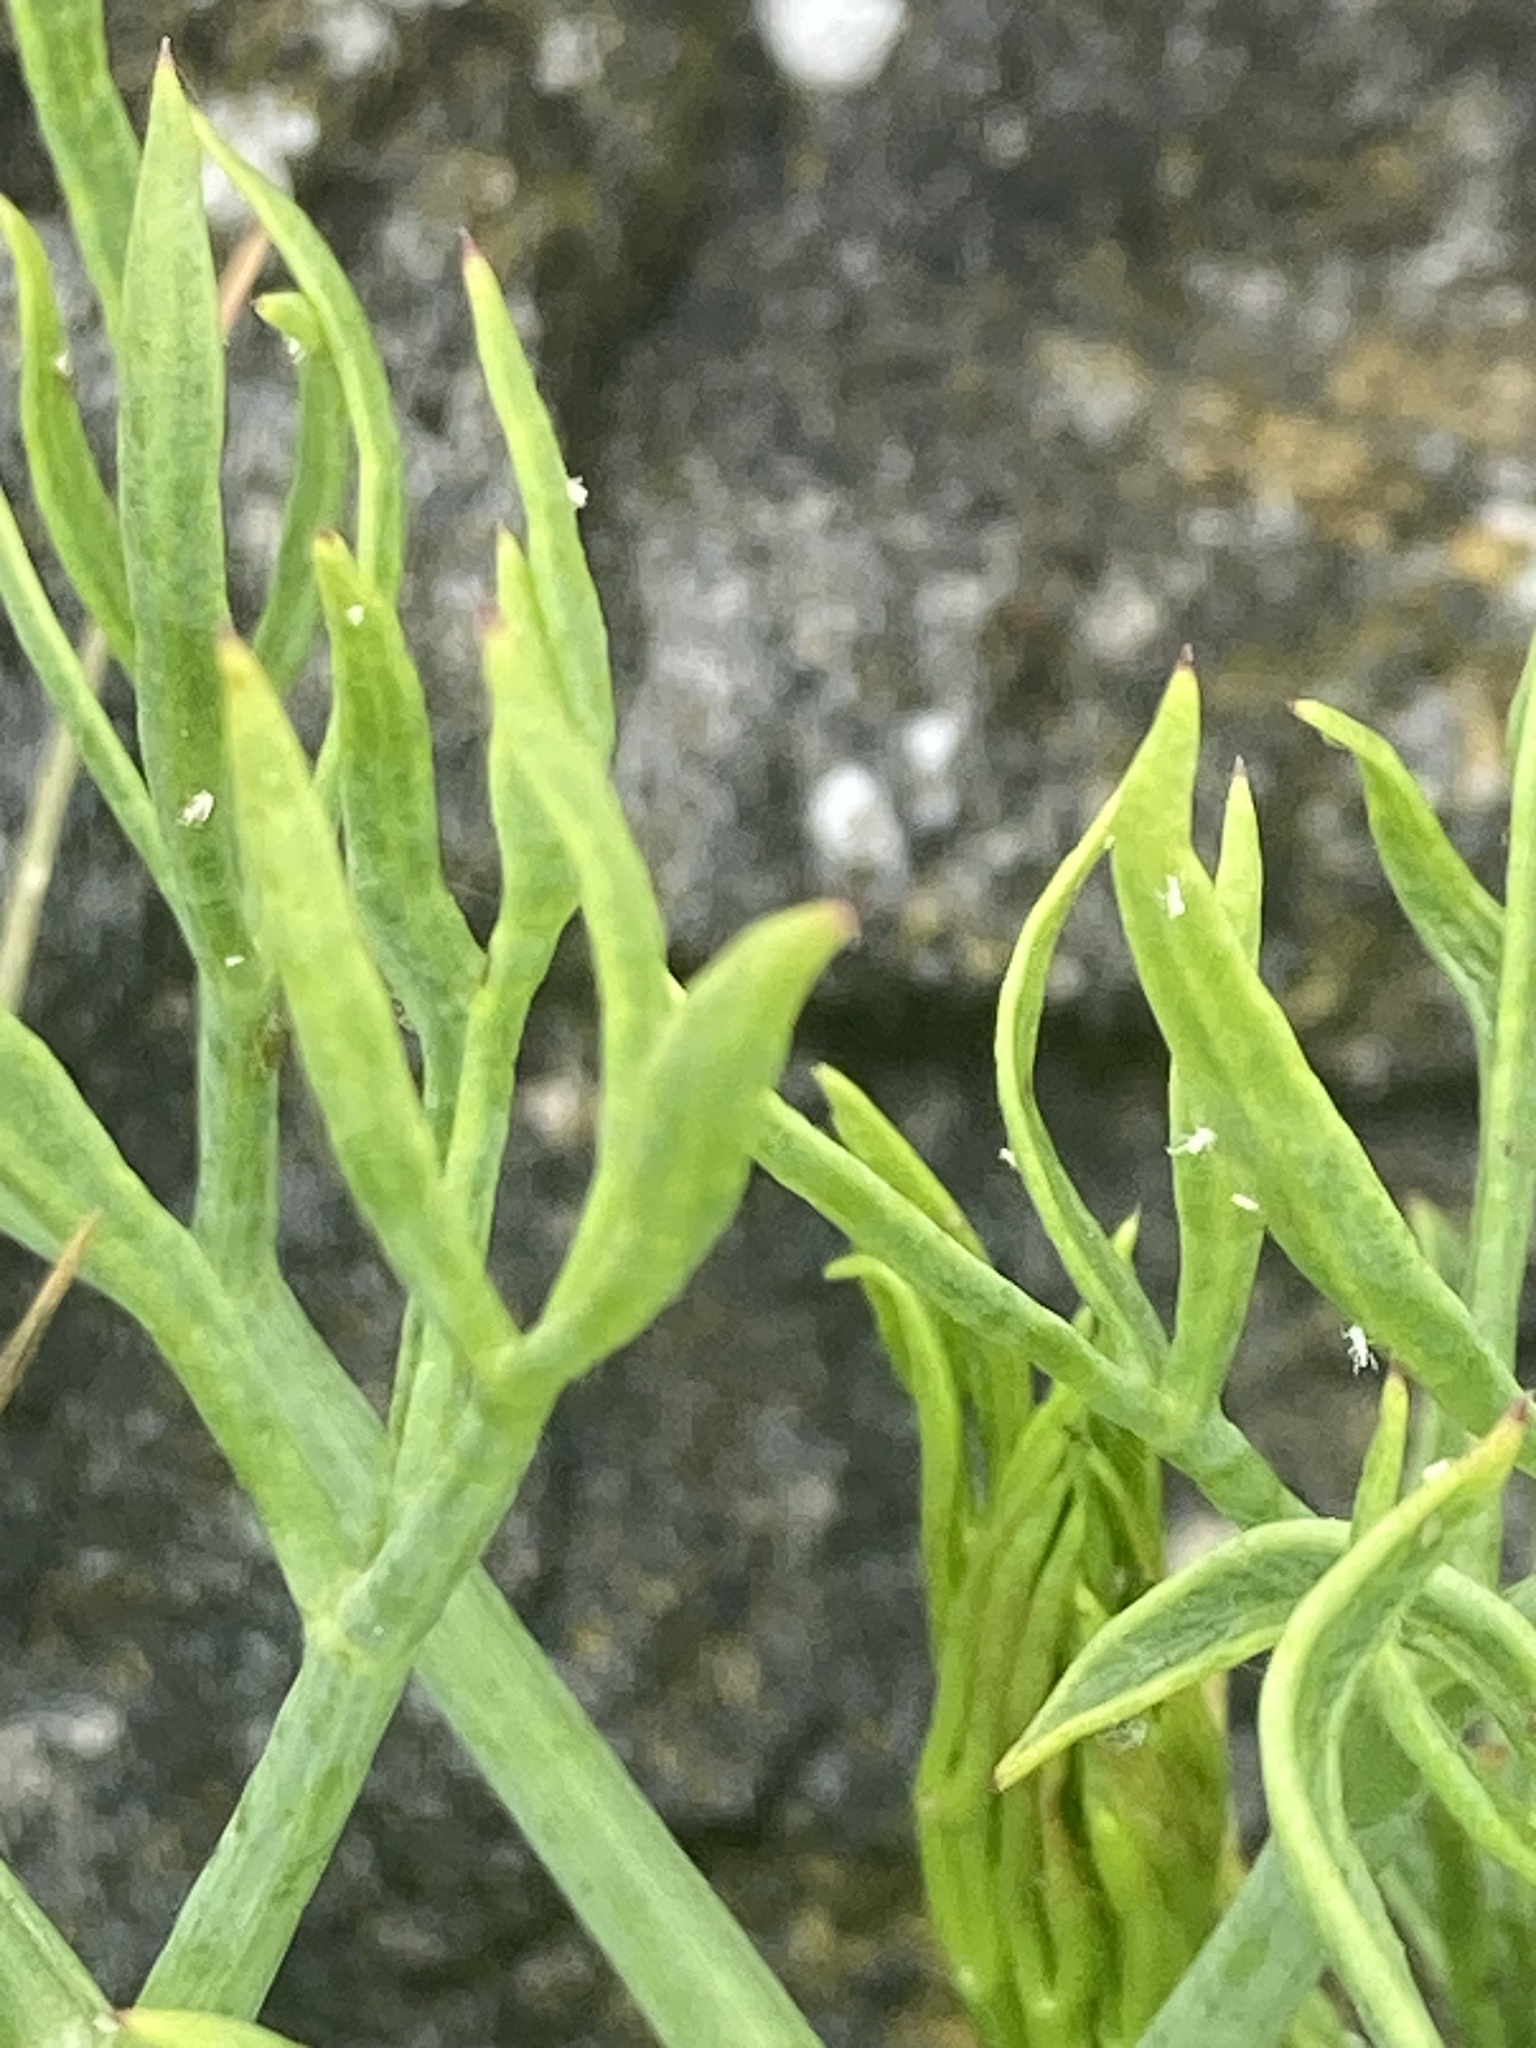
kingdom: Plantae
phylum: Tracheophyta
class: Magnoliopsida
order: Apiales
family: Apiaceae
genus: Crithmum
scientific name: Crithmum maritimum
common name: Rock samphire
